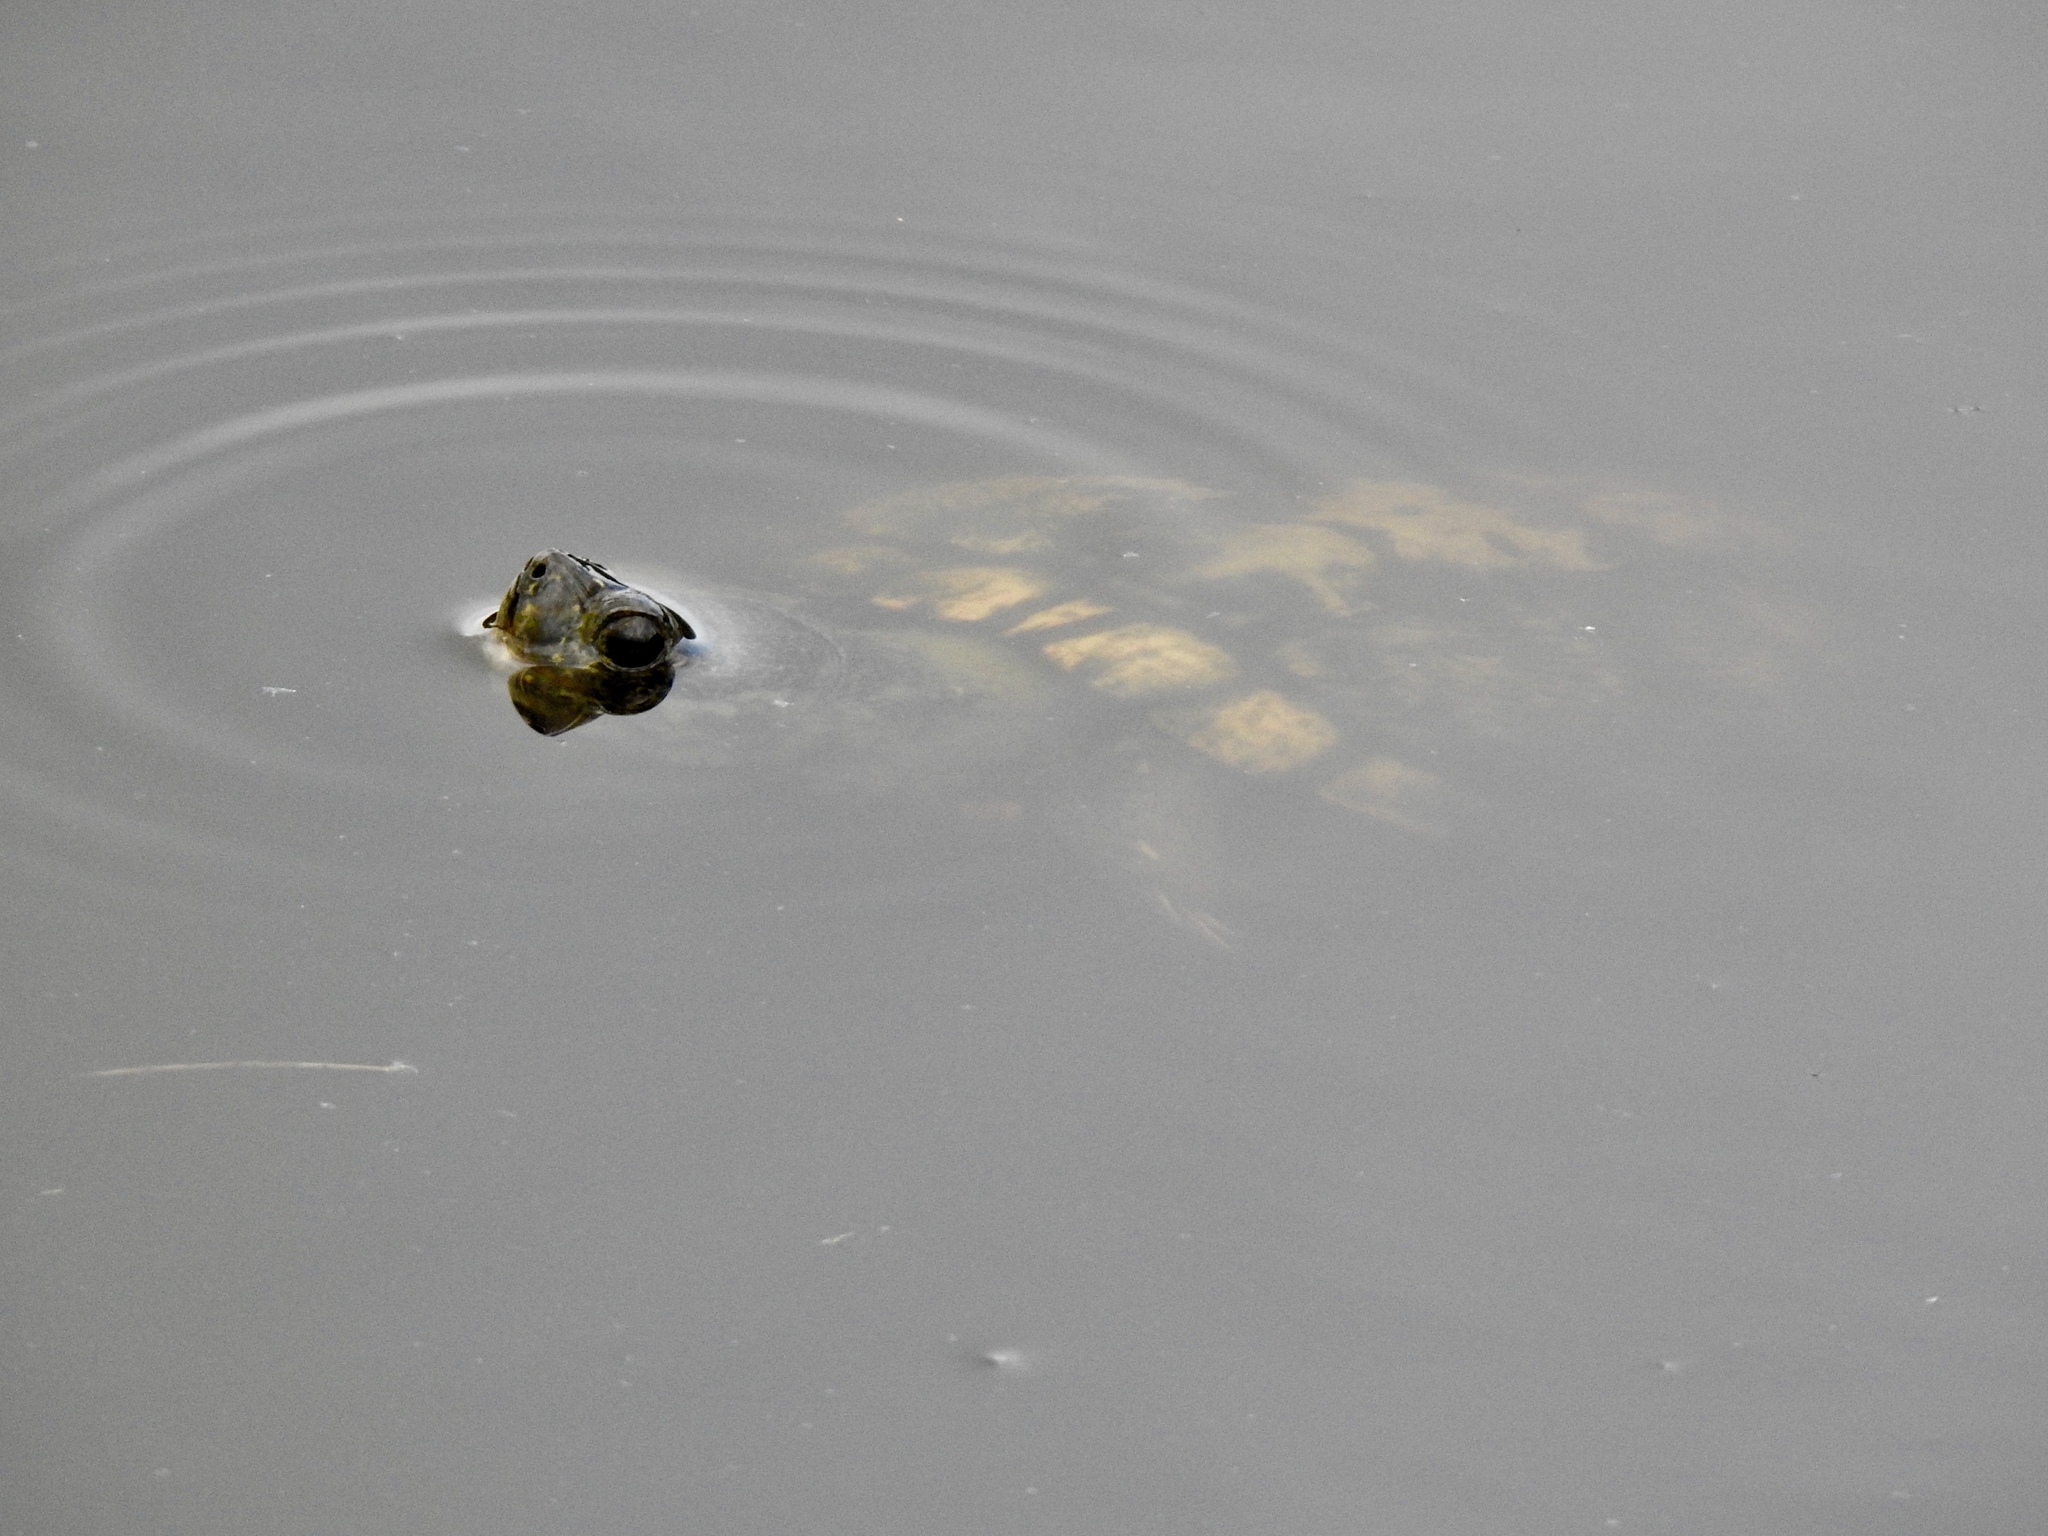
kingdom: Animalia
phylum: Chordata
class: Testudines
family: Emydidae
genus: Trachemys
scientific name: Trachemys scripta
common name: Slider
